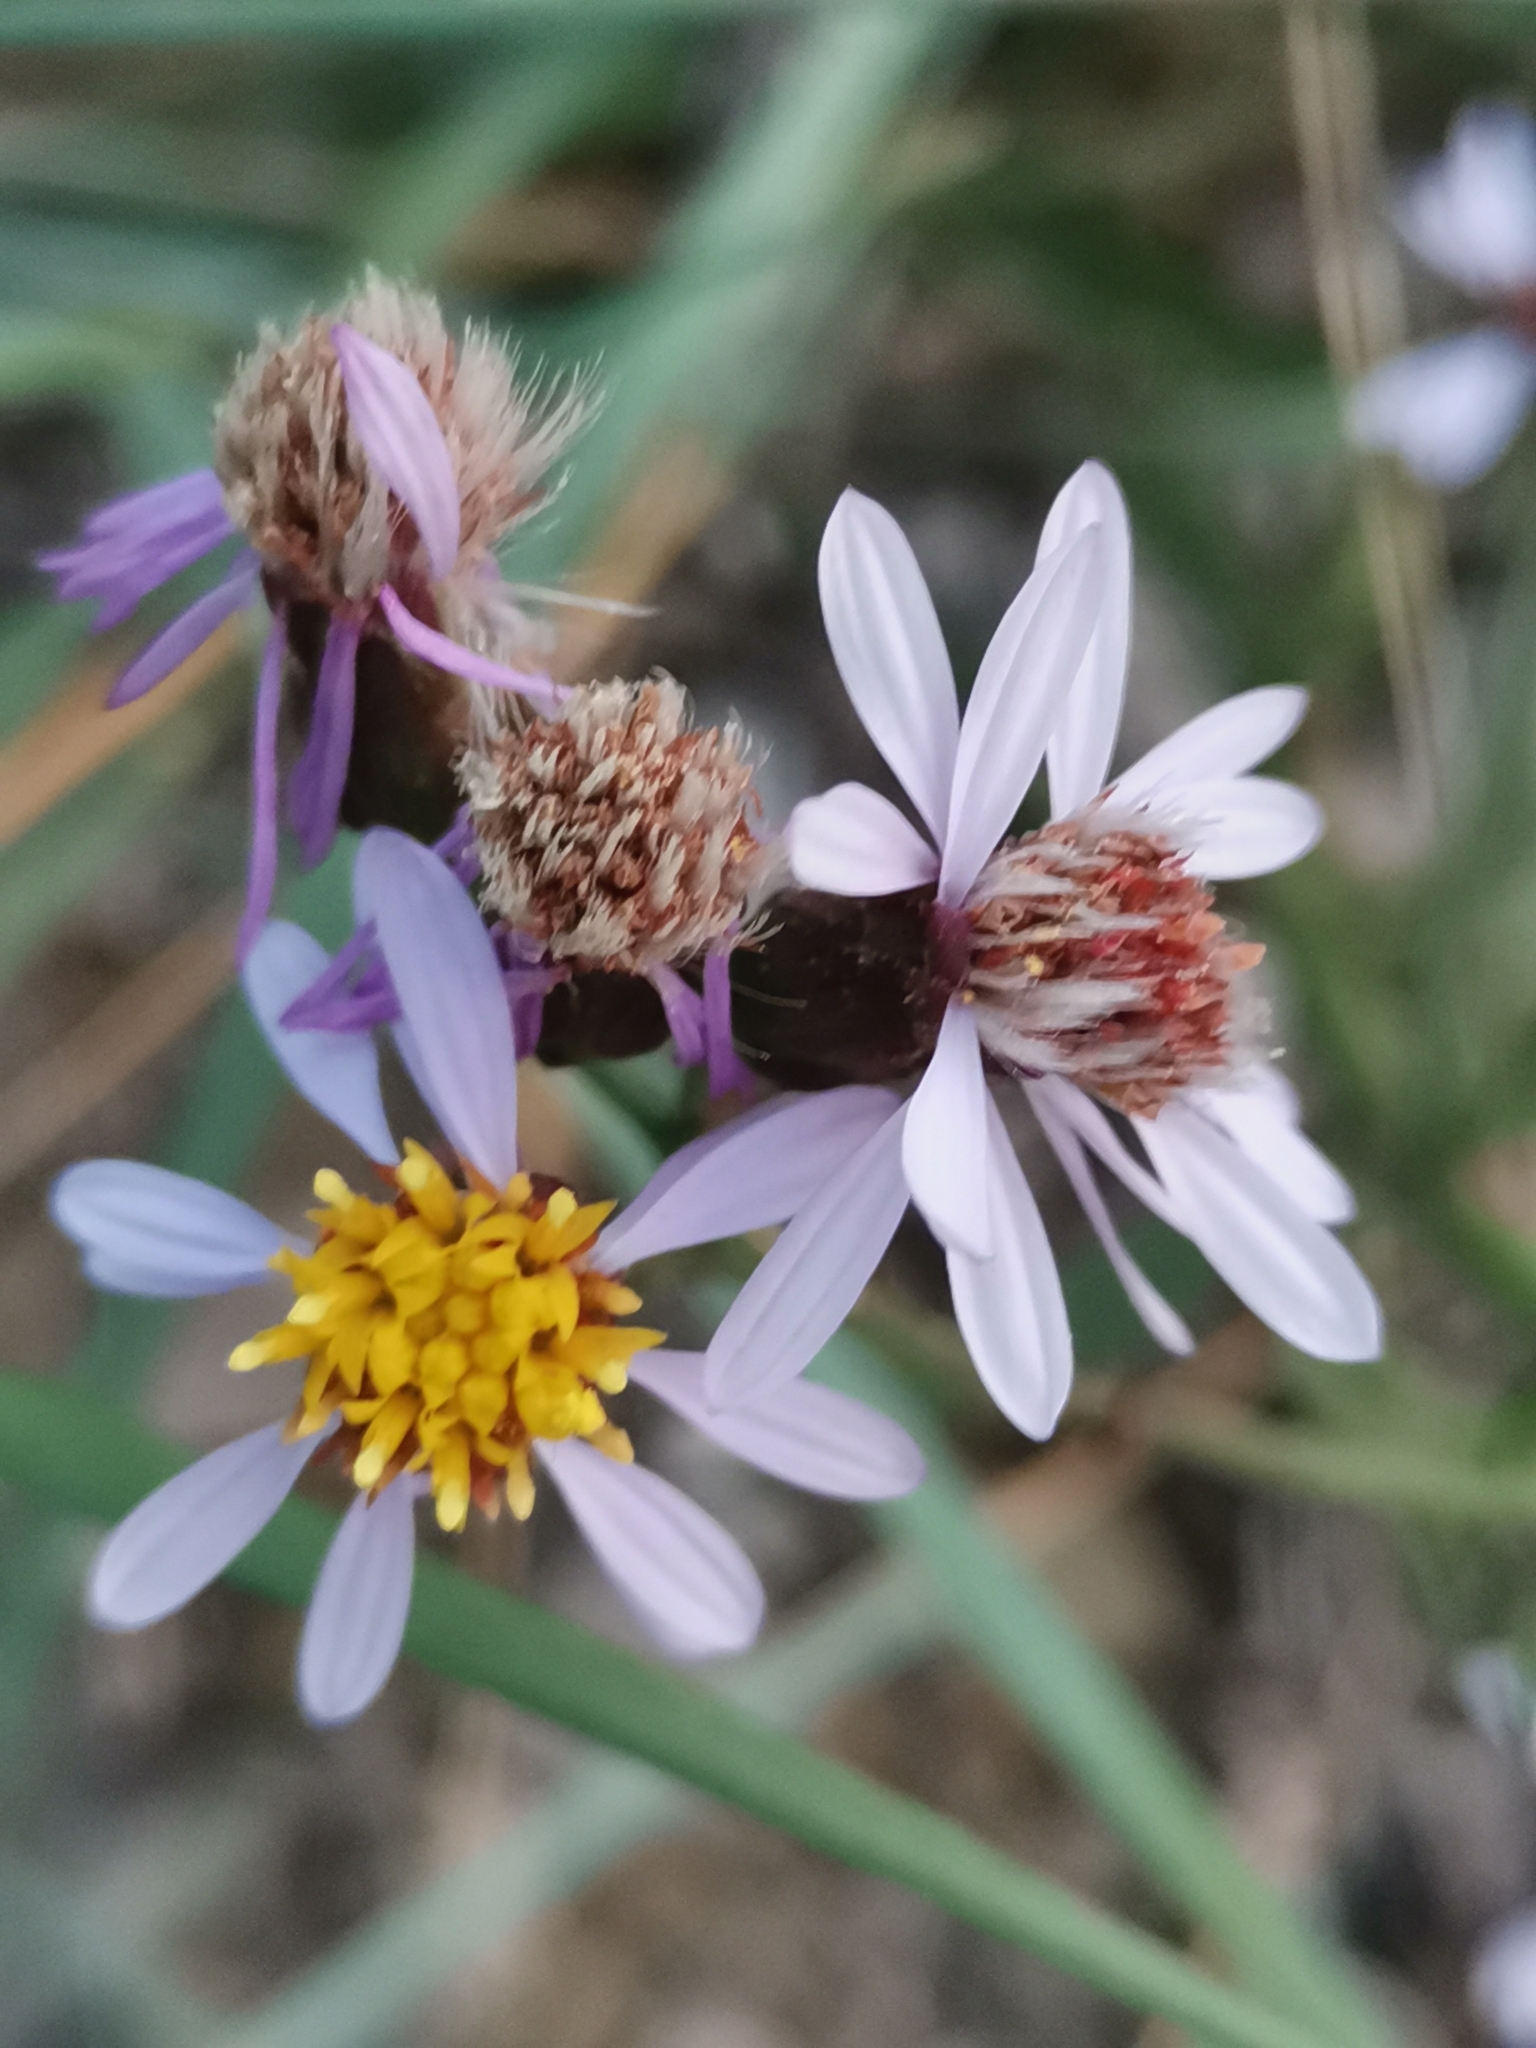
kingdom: Plantae
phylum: Tracheophyta
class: Magnoliopsida
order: Asterales
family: Asteraceae
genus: Tripolium
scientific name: Tripolium pannonicum
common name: Sea aster
